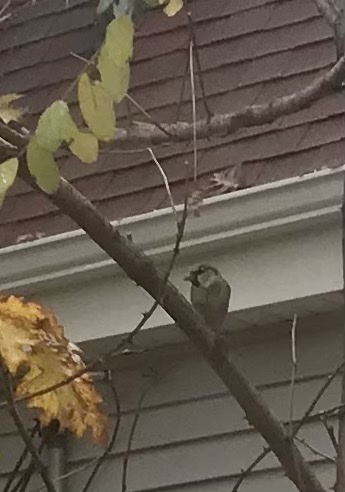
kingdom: Animalia
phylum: Chordata
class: Aves
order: Passeriformes
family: Passeridae
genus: Passer
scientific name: Passer domesticus
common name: House sparrow
